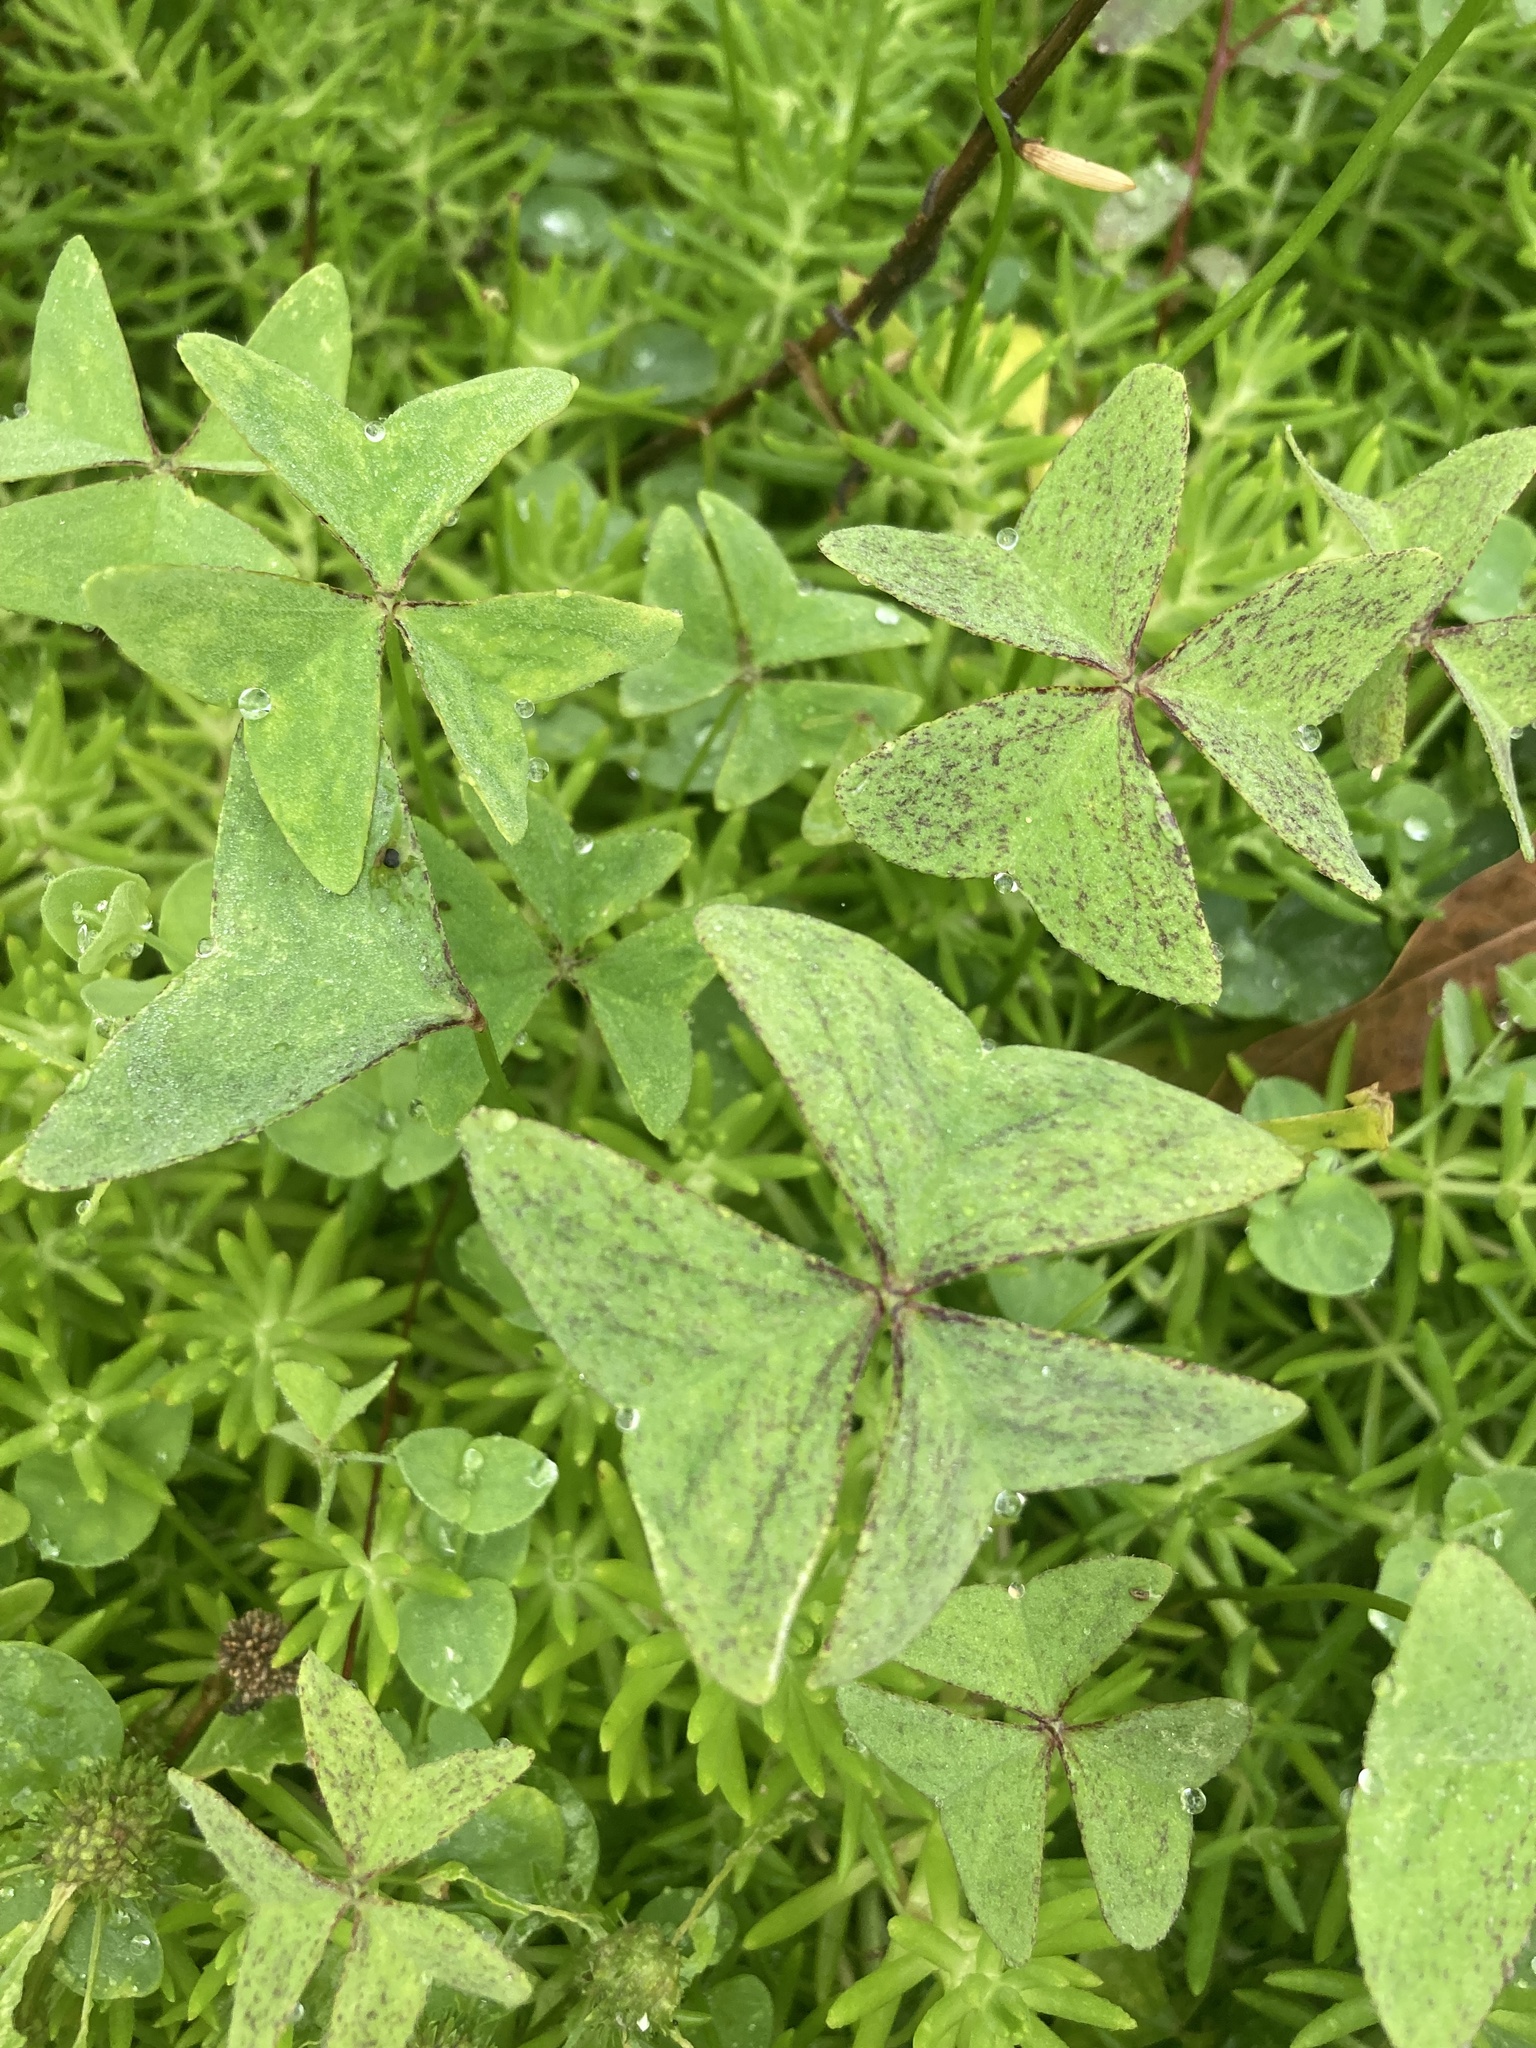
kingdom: Plantae
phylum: Tracheophyta
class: Magnoliopsida
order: Oxalidales
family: Oxalidaceae
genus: Oxalis
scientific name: Oxalis latifolia
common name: Garden pink-sorrel
